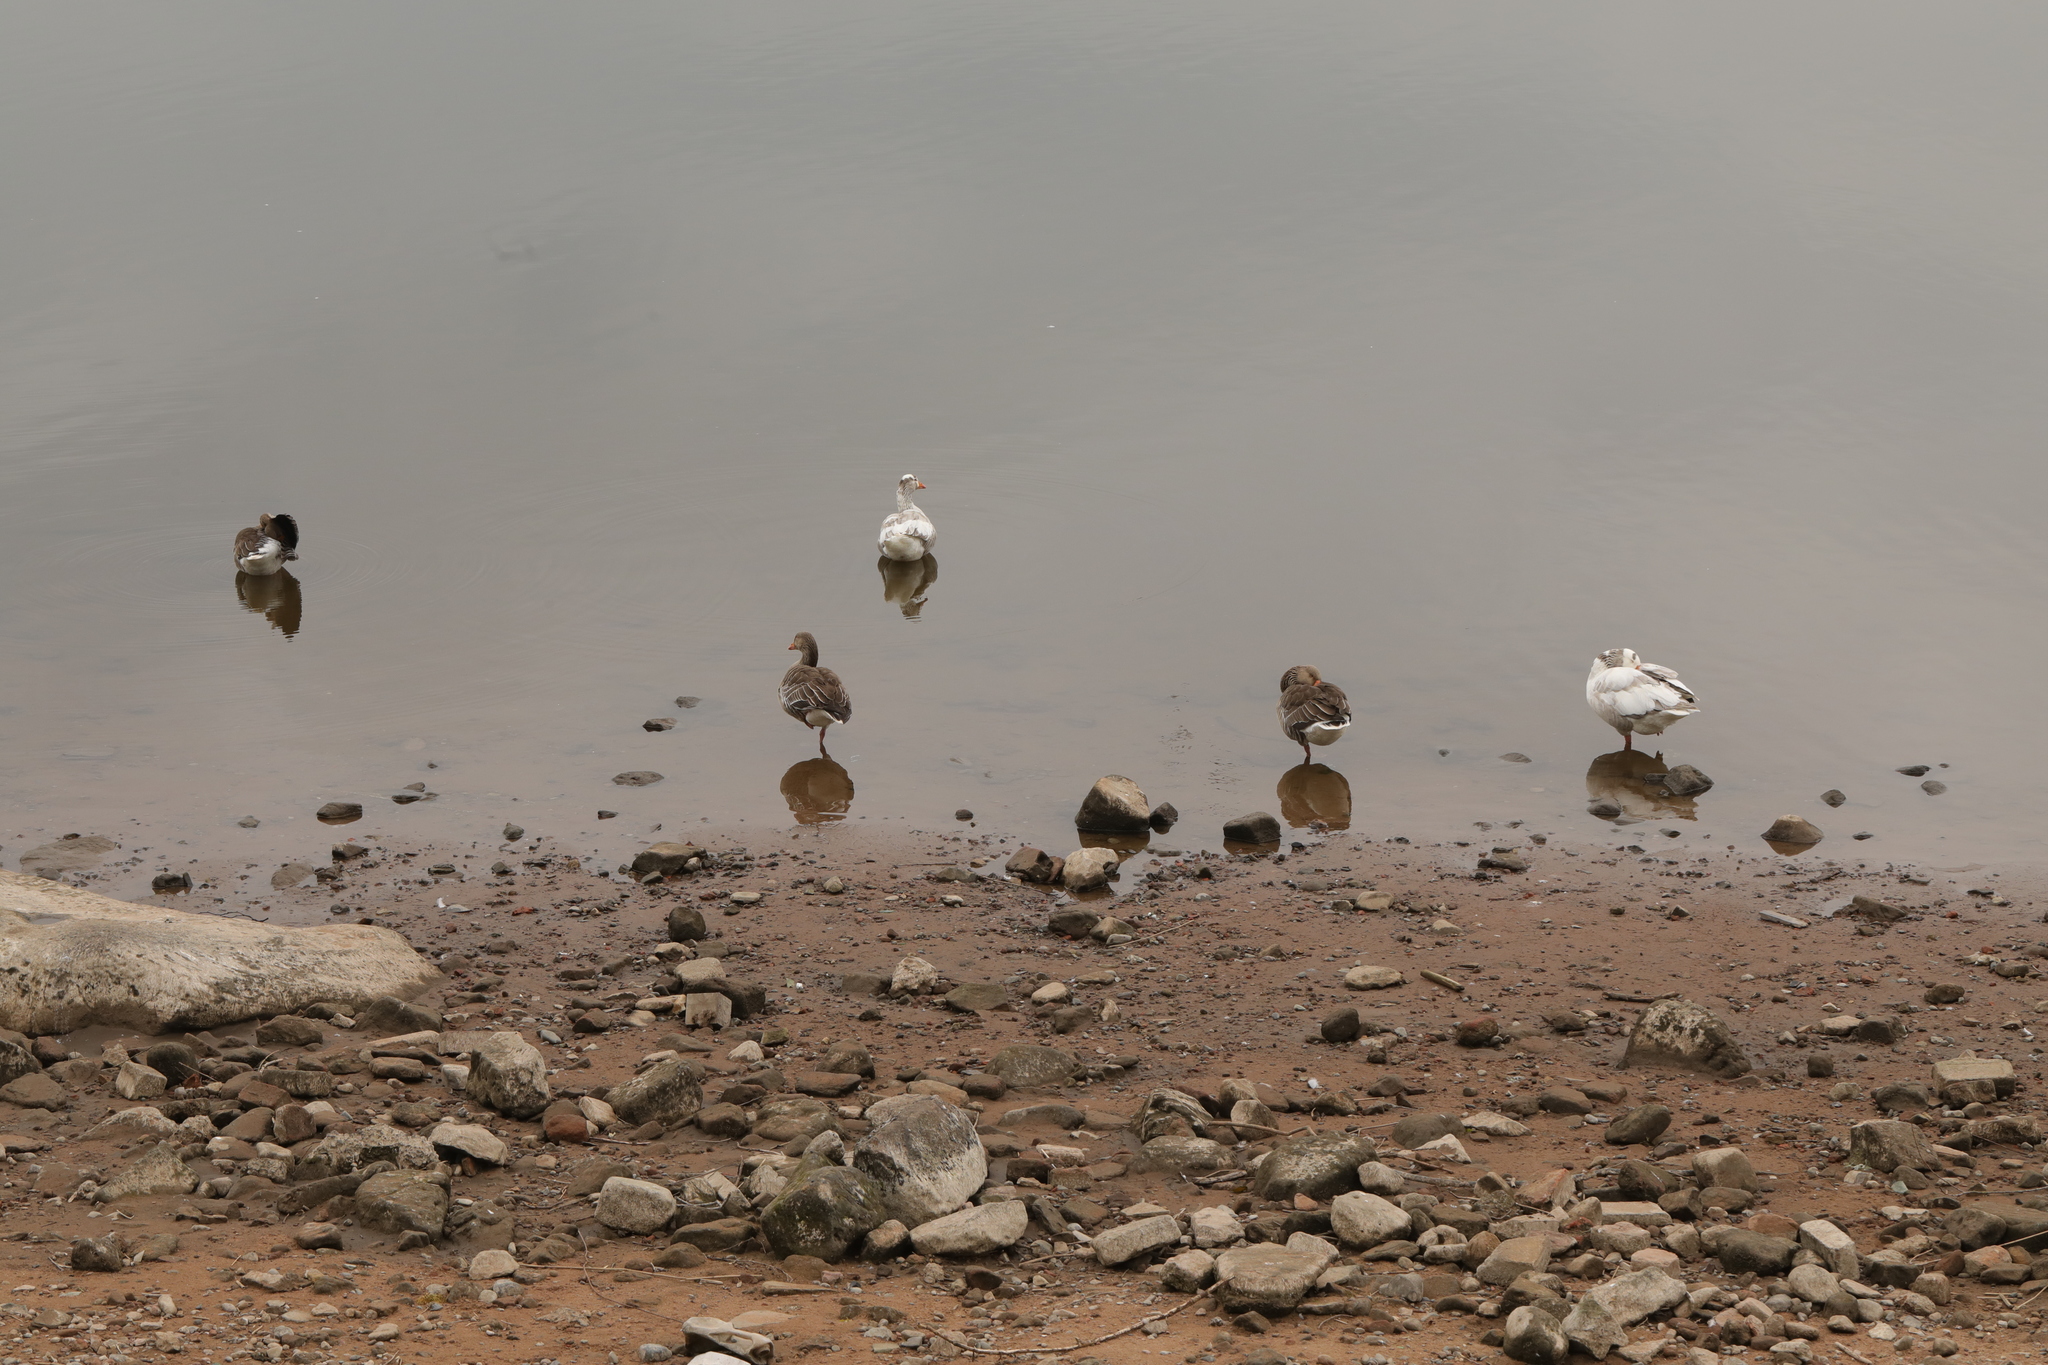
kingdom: Animalia
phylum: Chordata
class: Aves
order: Anseriformes
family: Anatidae
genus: Anser
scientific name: Anser anser
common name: Greylag goose
